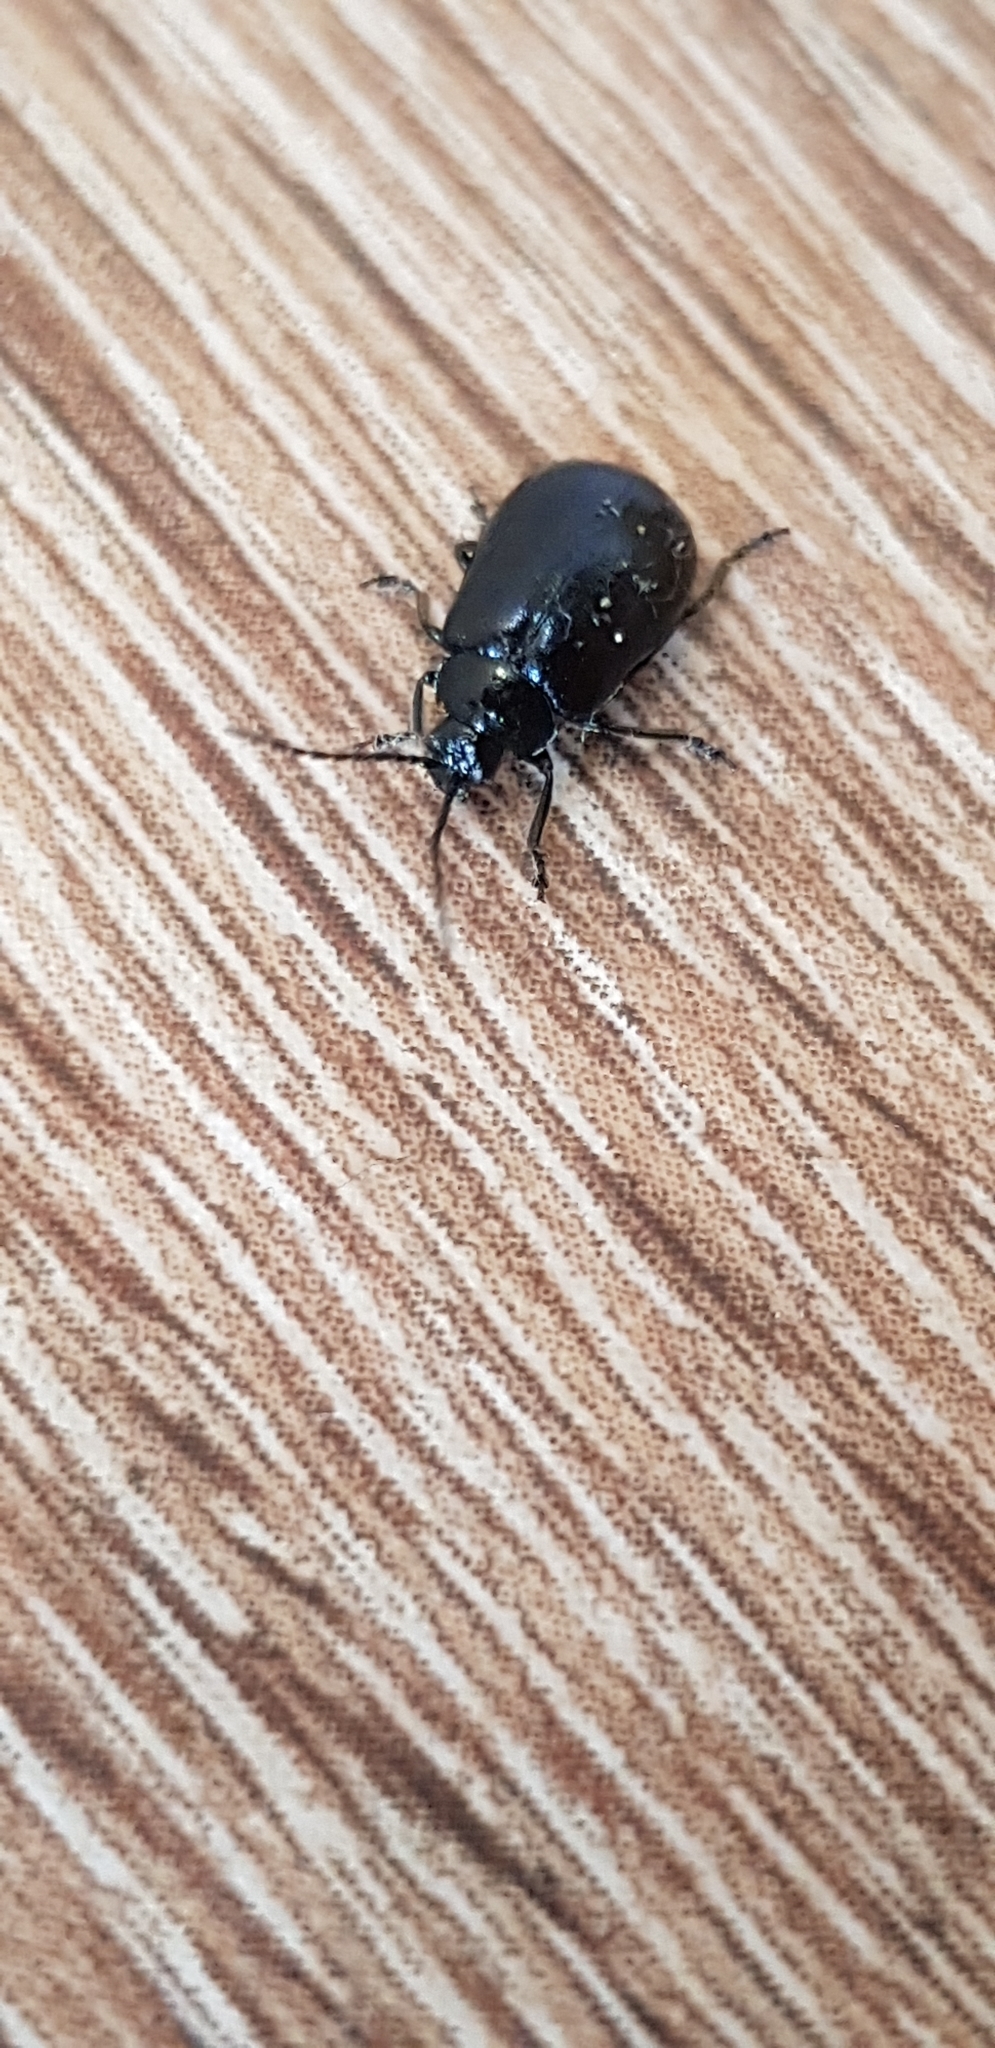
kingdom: Animalia
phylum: Arthropoda
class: Insecta
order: Coleoptera
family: Chrysomelidae
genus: Agelastica
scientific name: Agelastica alni
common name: Alder leaf beetle
